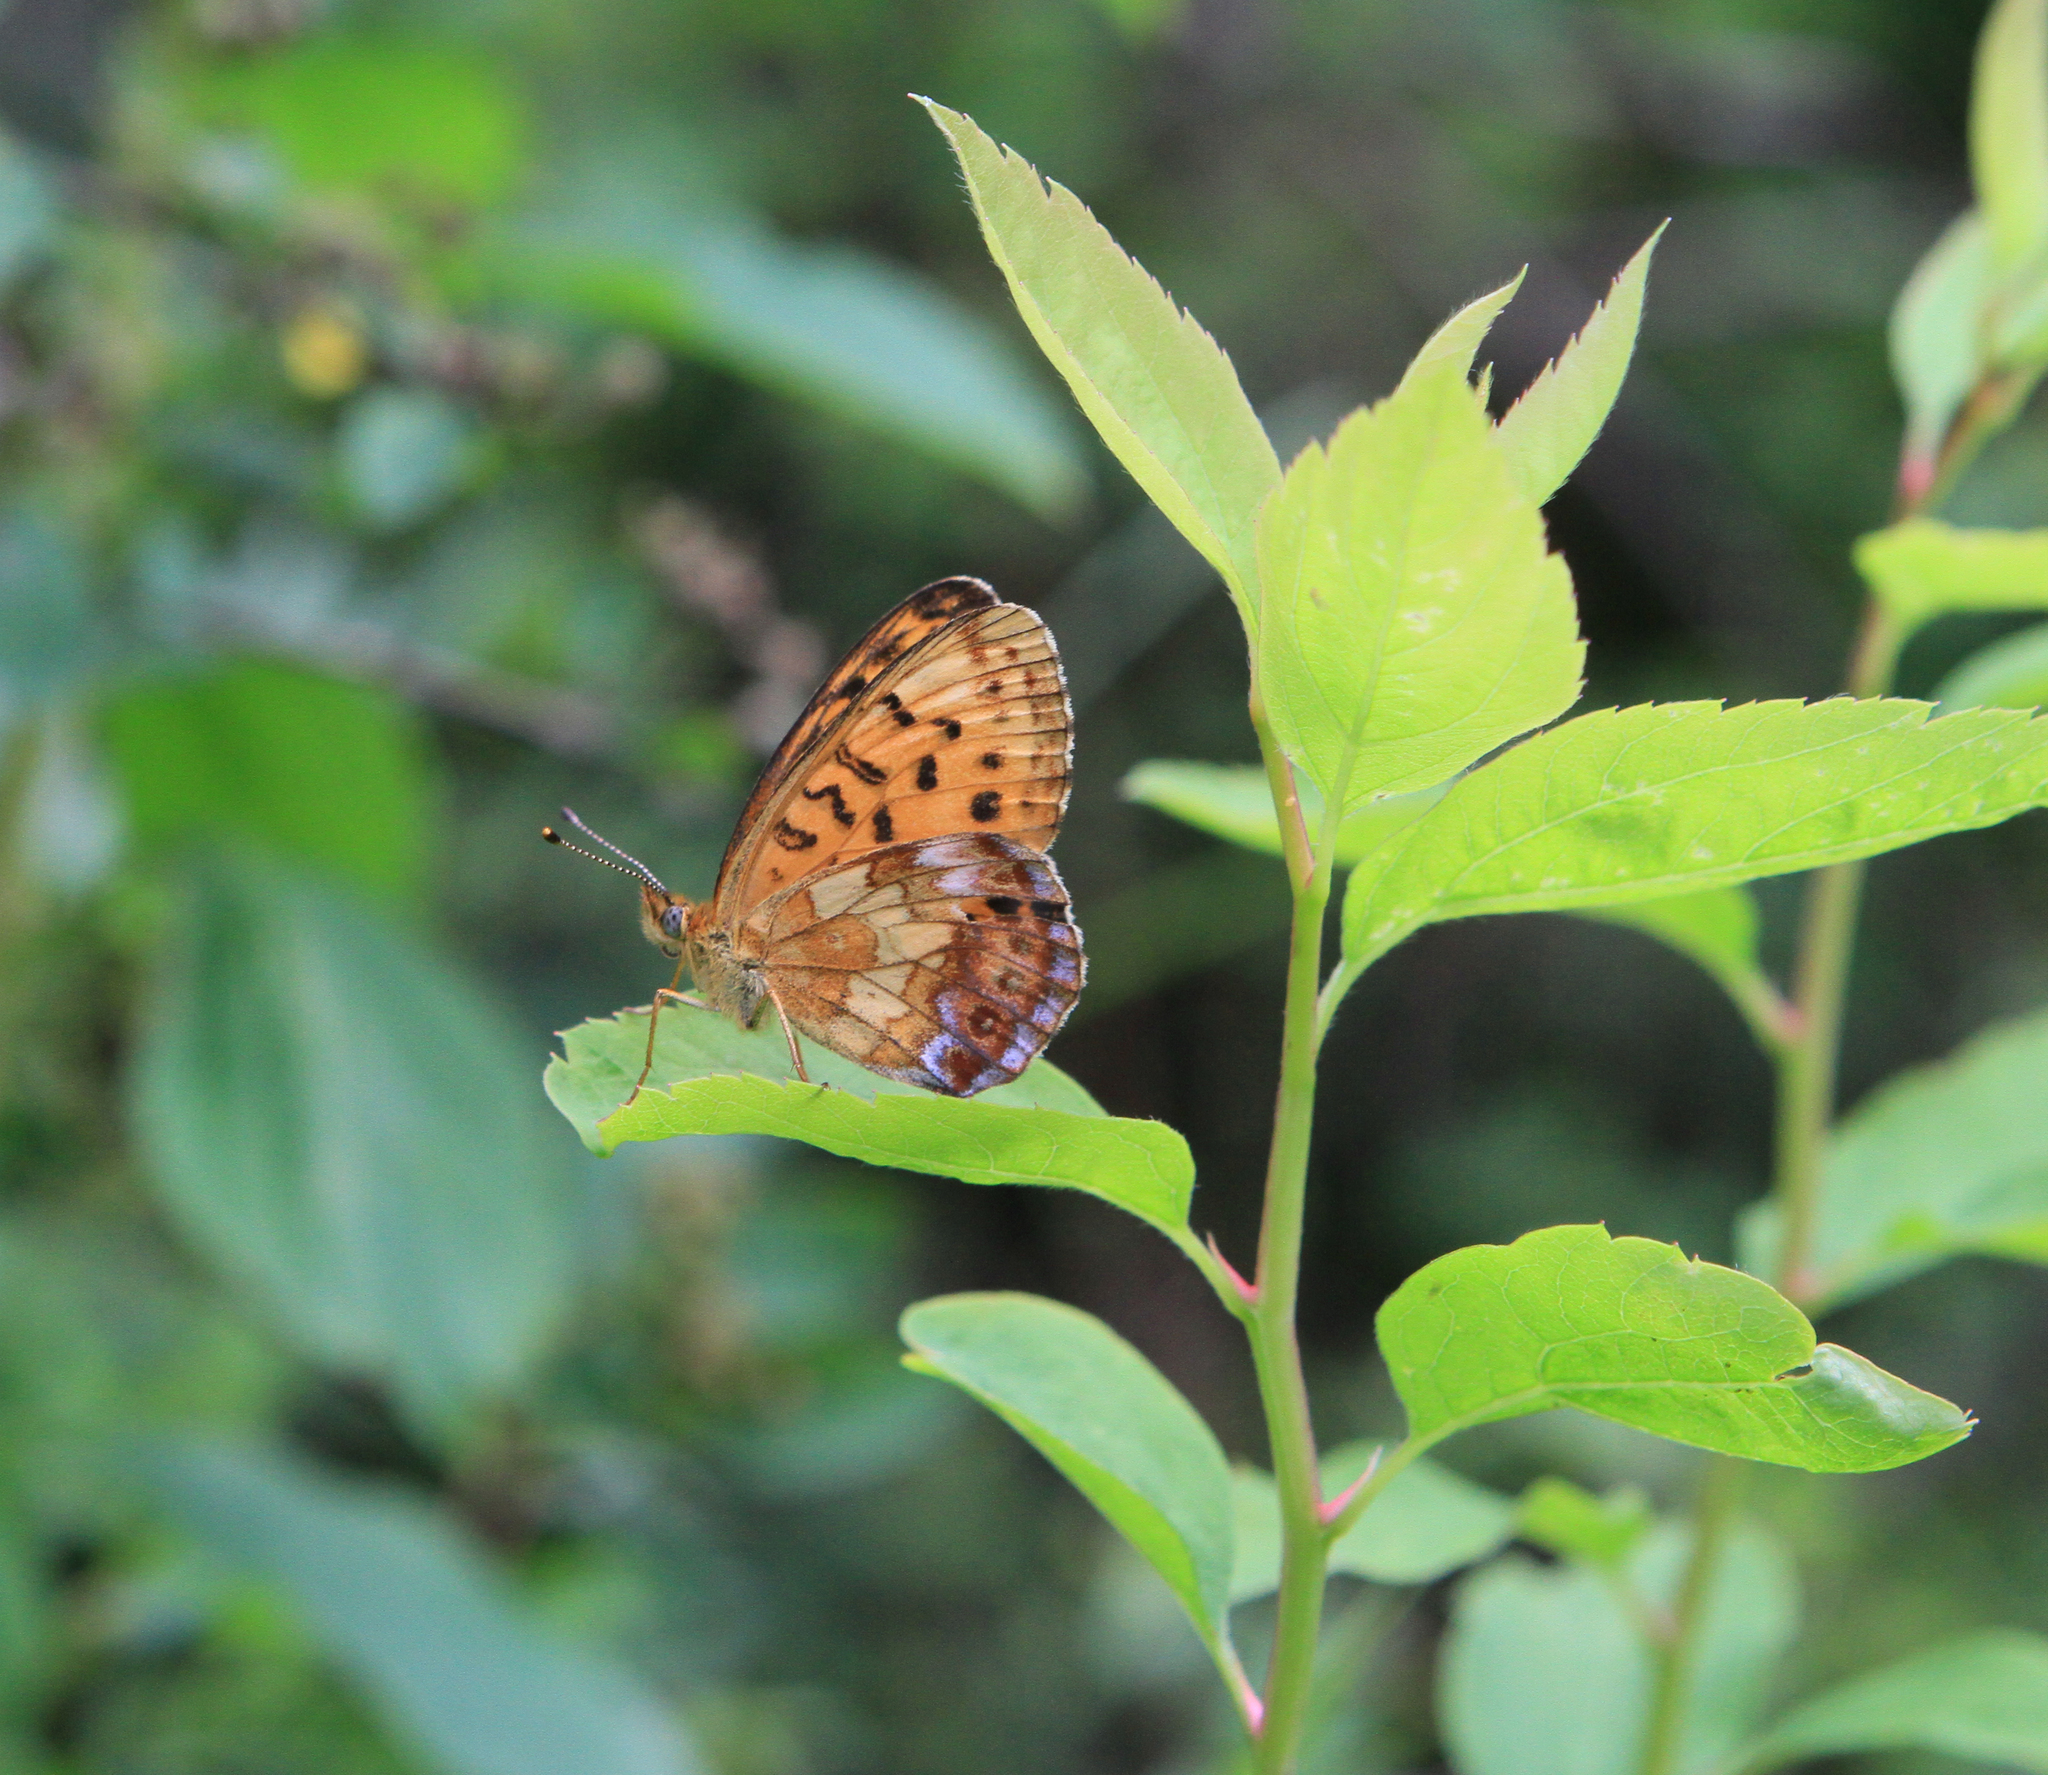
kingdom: Animalia
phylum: Arthropoda
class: Insecta
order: Lepidoptera
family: Nymphalidae
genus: Boloria
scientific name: Boloria thore
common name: Thor's fritillary
